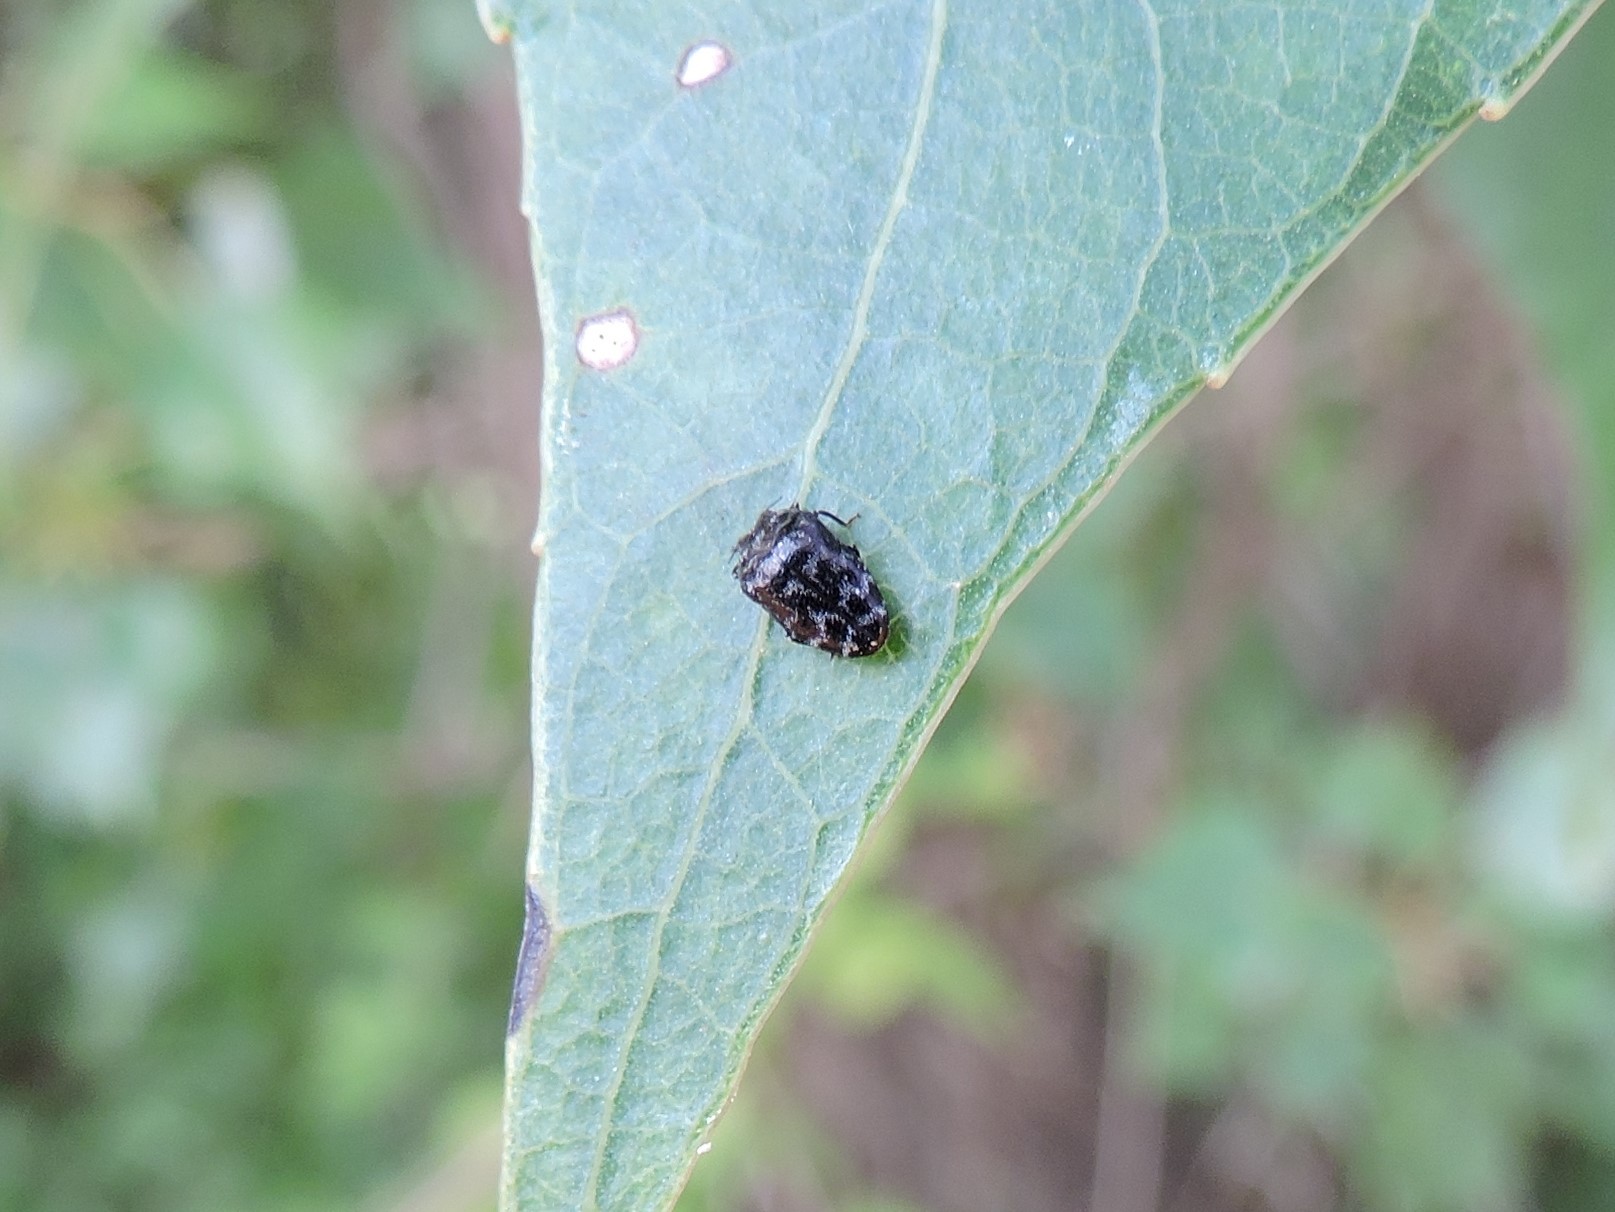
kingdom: Animalia
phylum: Arthropoda
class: Insecta
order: Coleoptera
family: Buprestidae
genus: Trachys
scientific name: Trachys minutus
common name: Metallic wood-boring beetle
